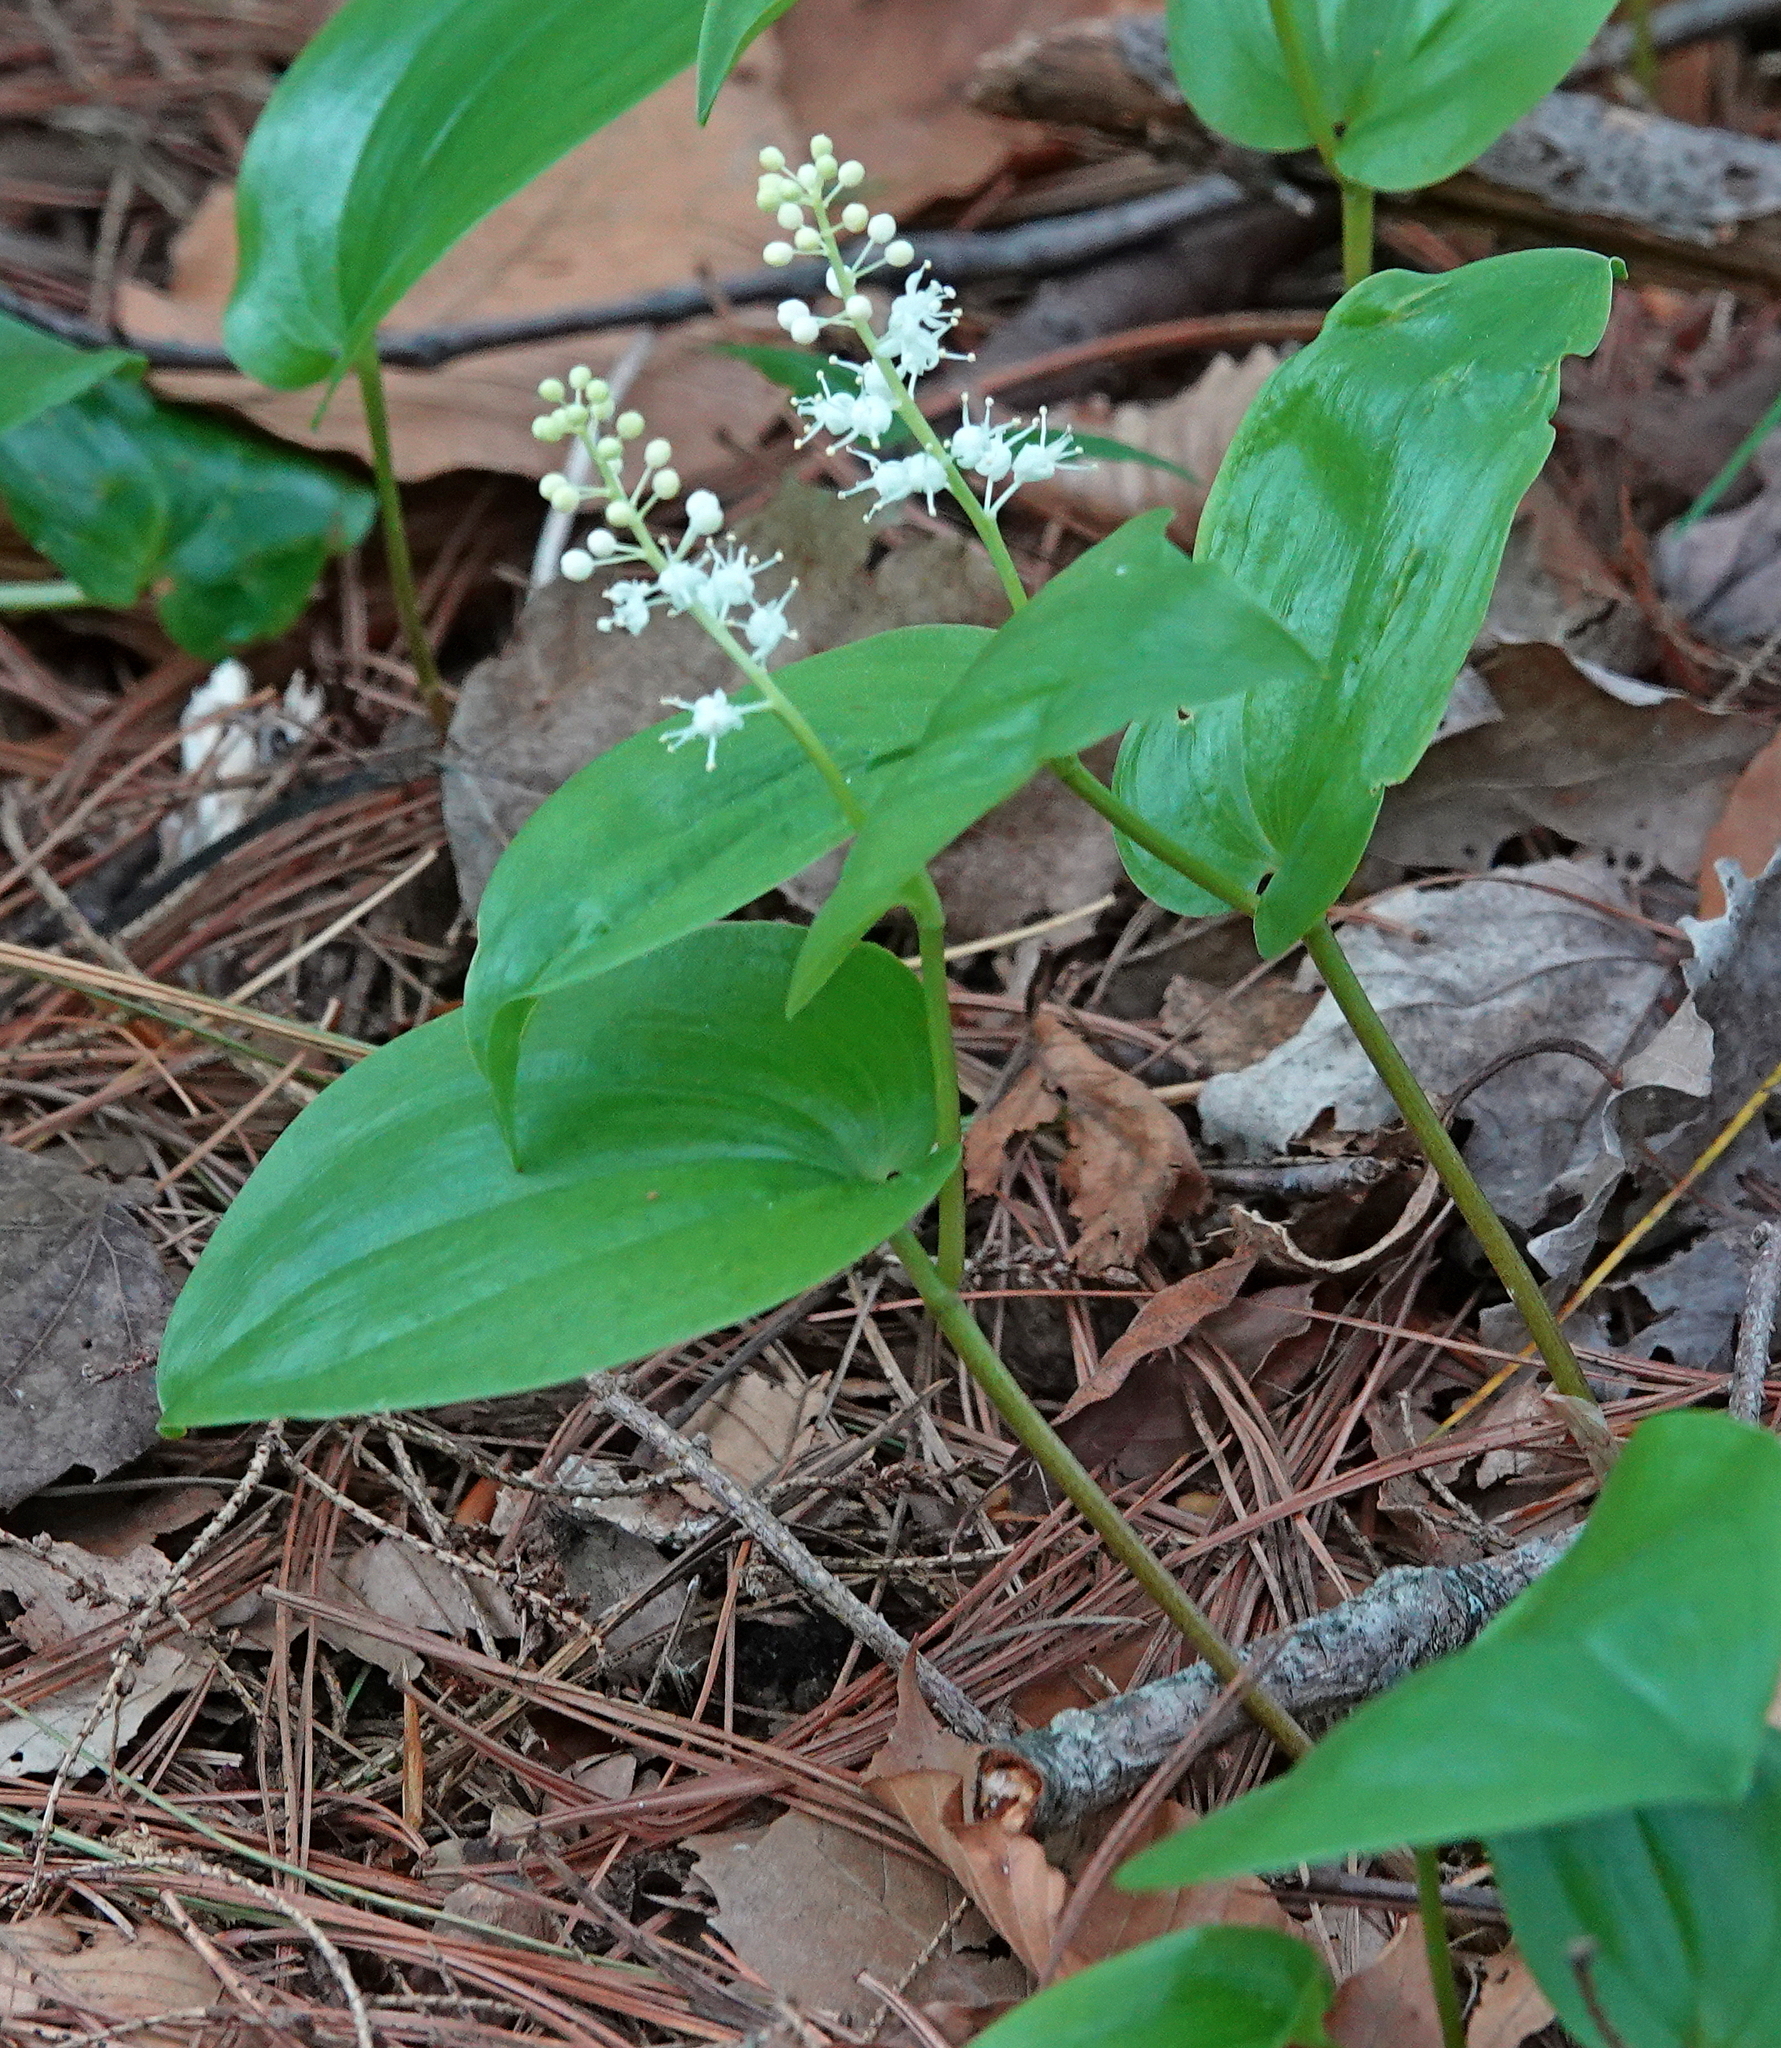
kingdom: Plantae
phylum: Tracheophyta
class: Liliopsida
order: Asparagales
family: Asparagaceae
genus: Maianthemum
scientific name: Maianthemum canadense
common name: False lily-of-the-valley
